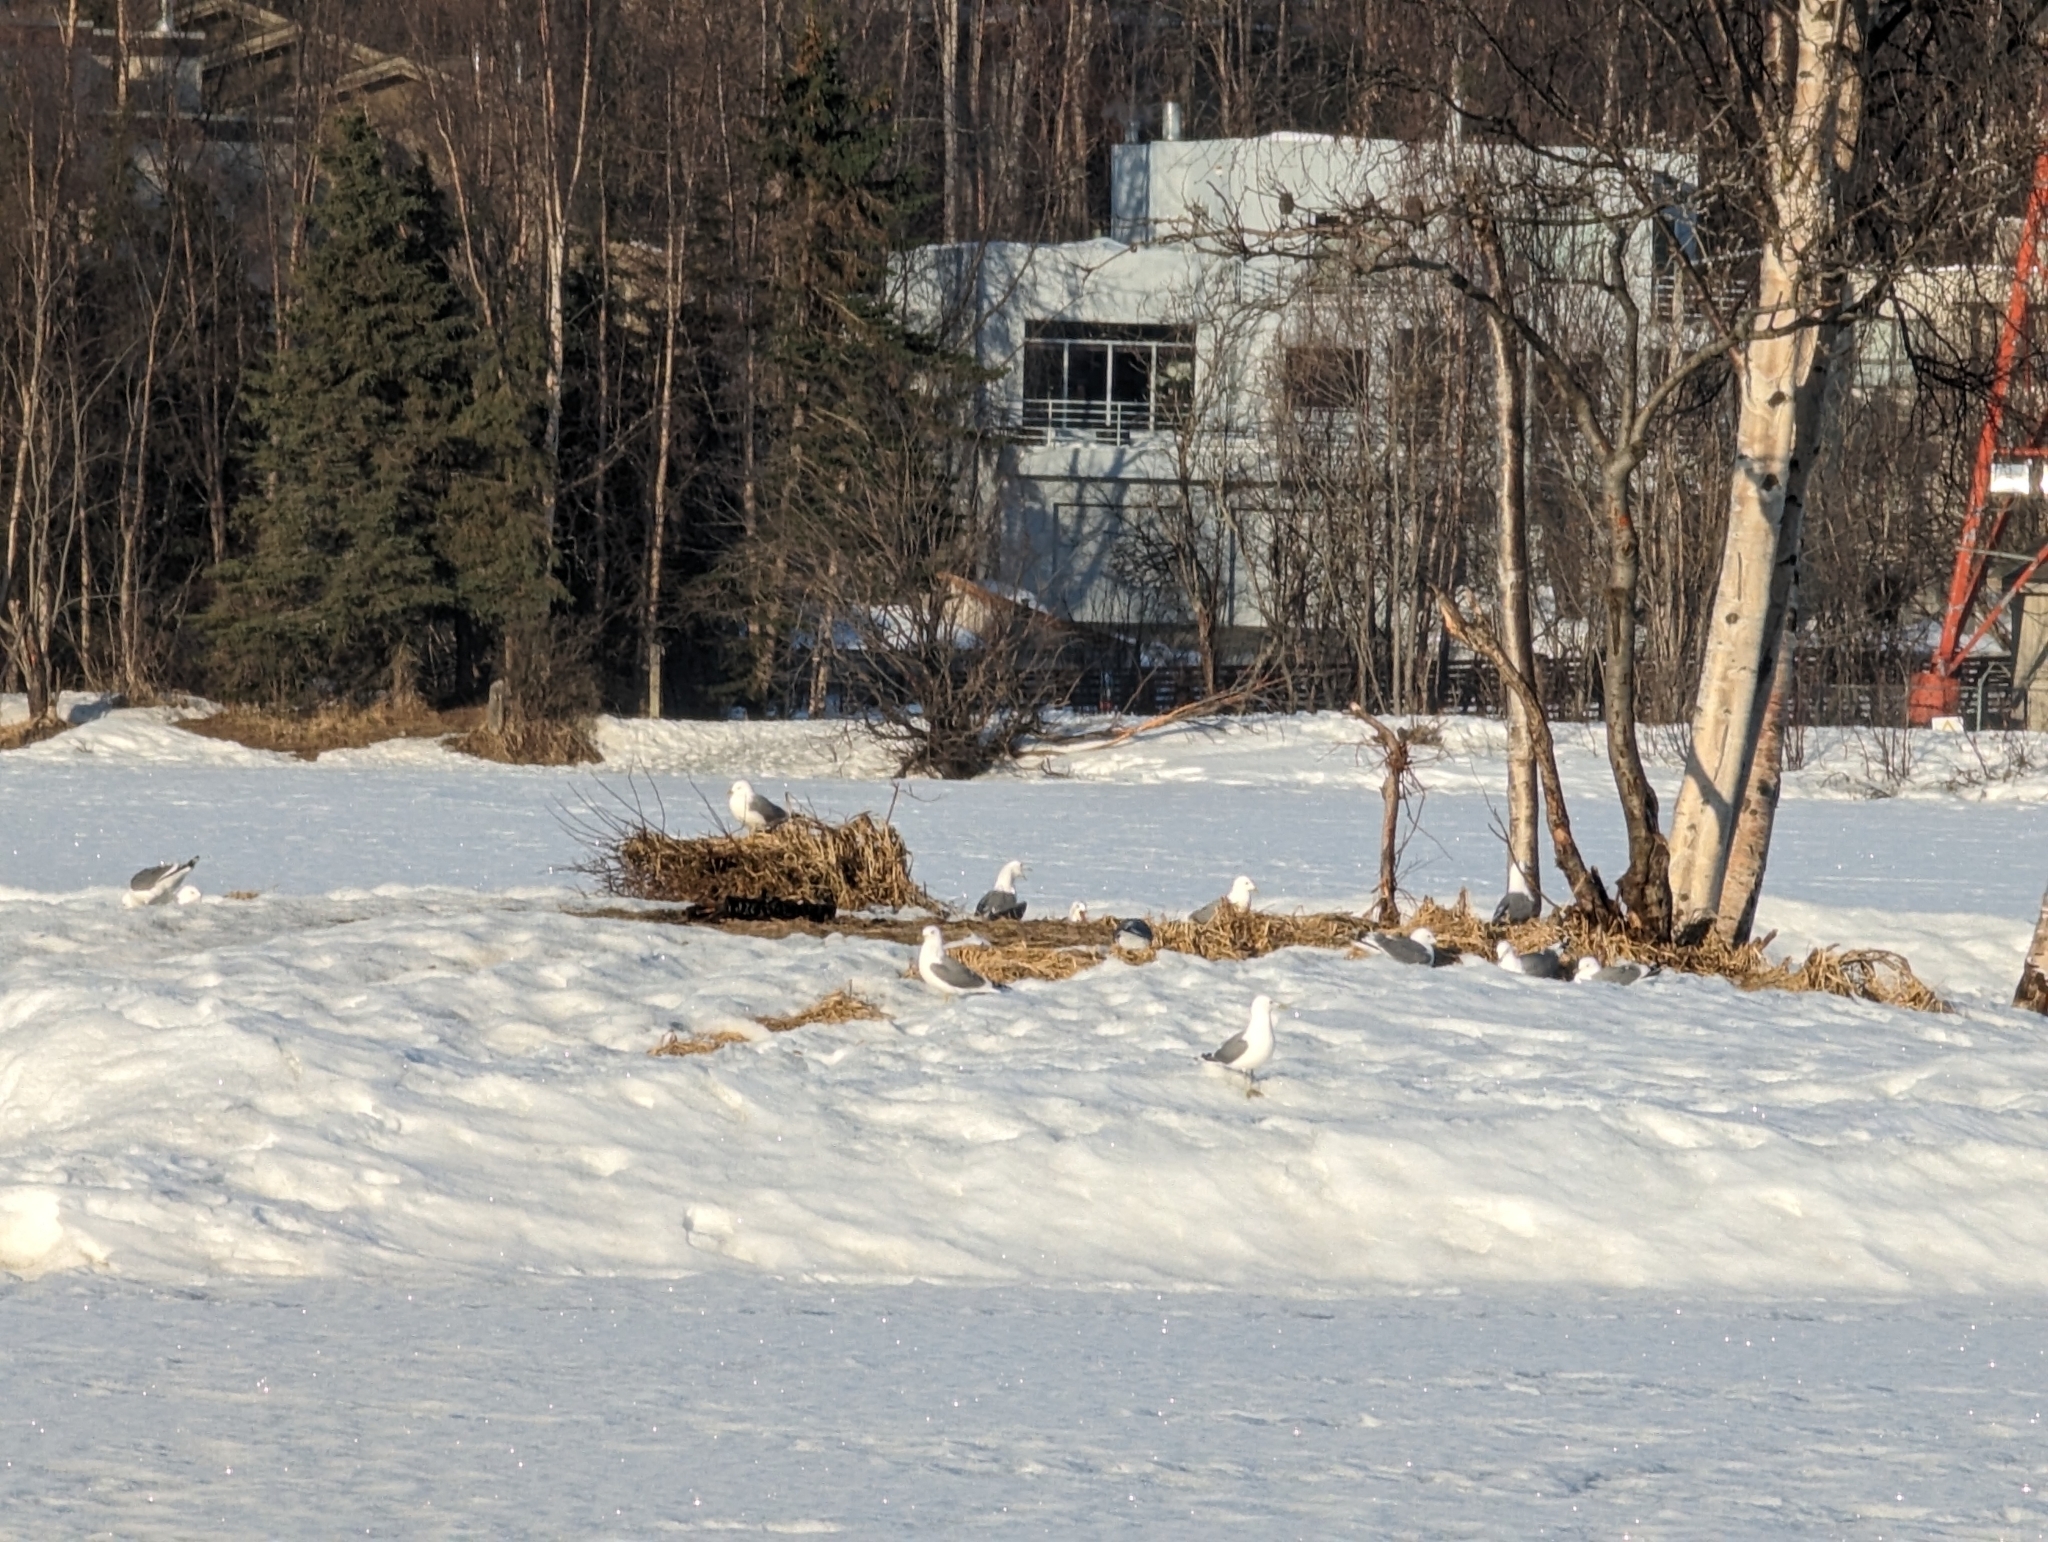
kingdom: Animalia
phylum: Chordata
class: Aves
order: Charadriiformes
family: Laridae
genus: Larus
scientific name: Larus brachyrhynchus
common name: Short-billed gull
